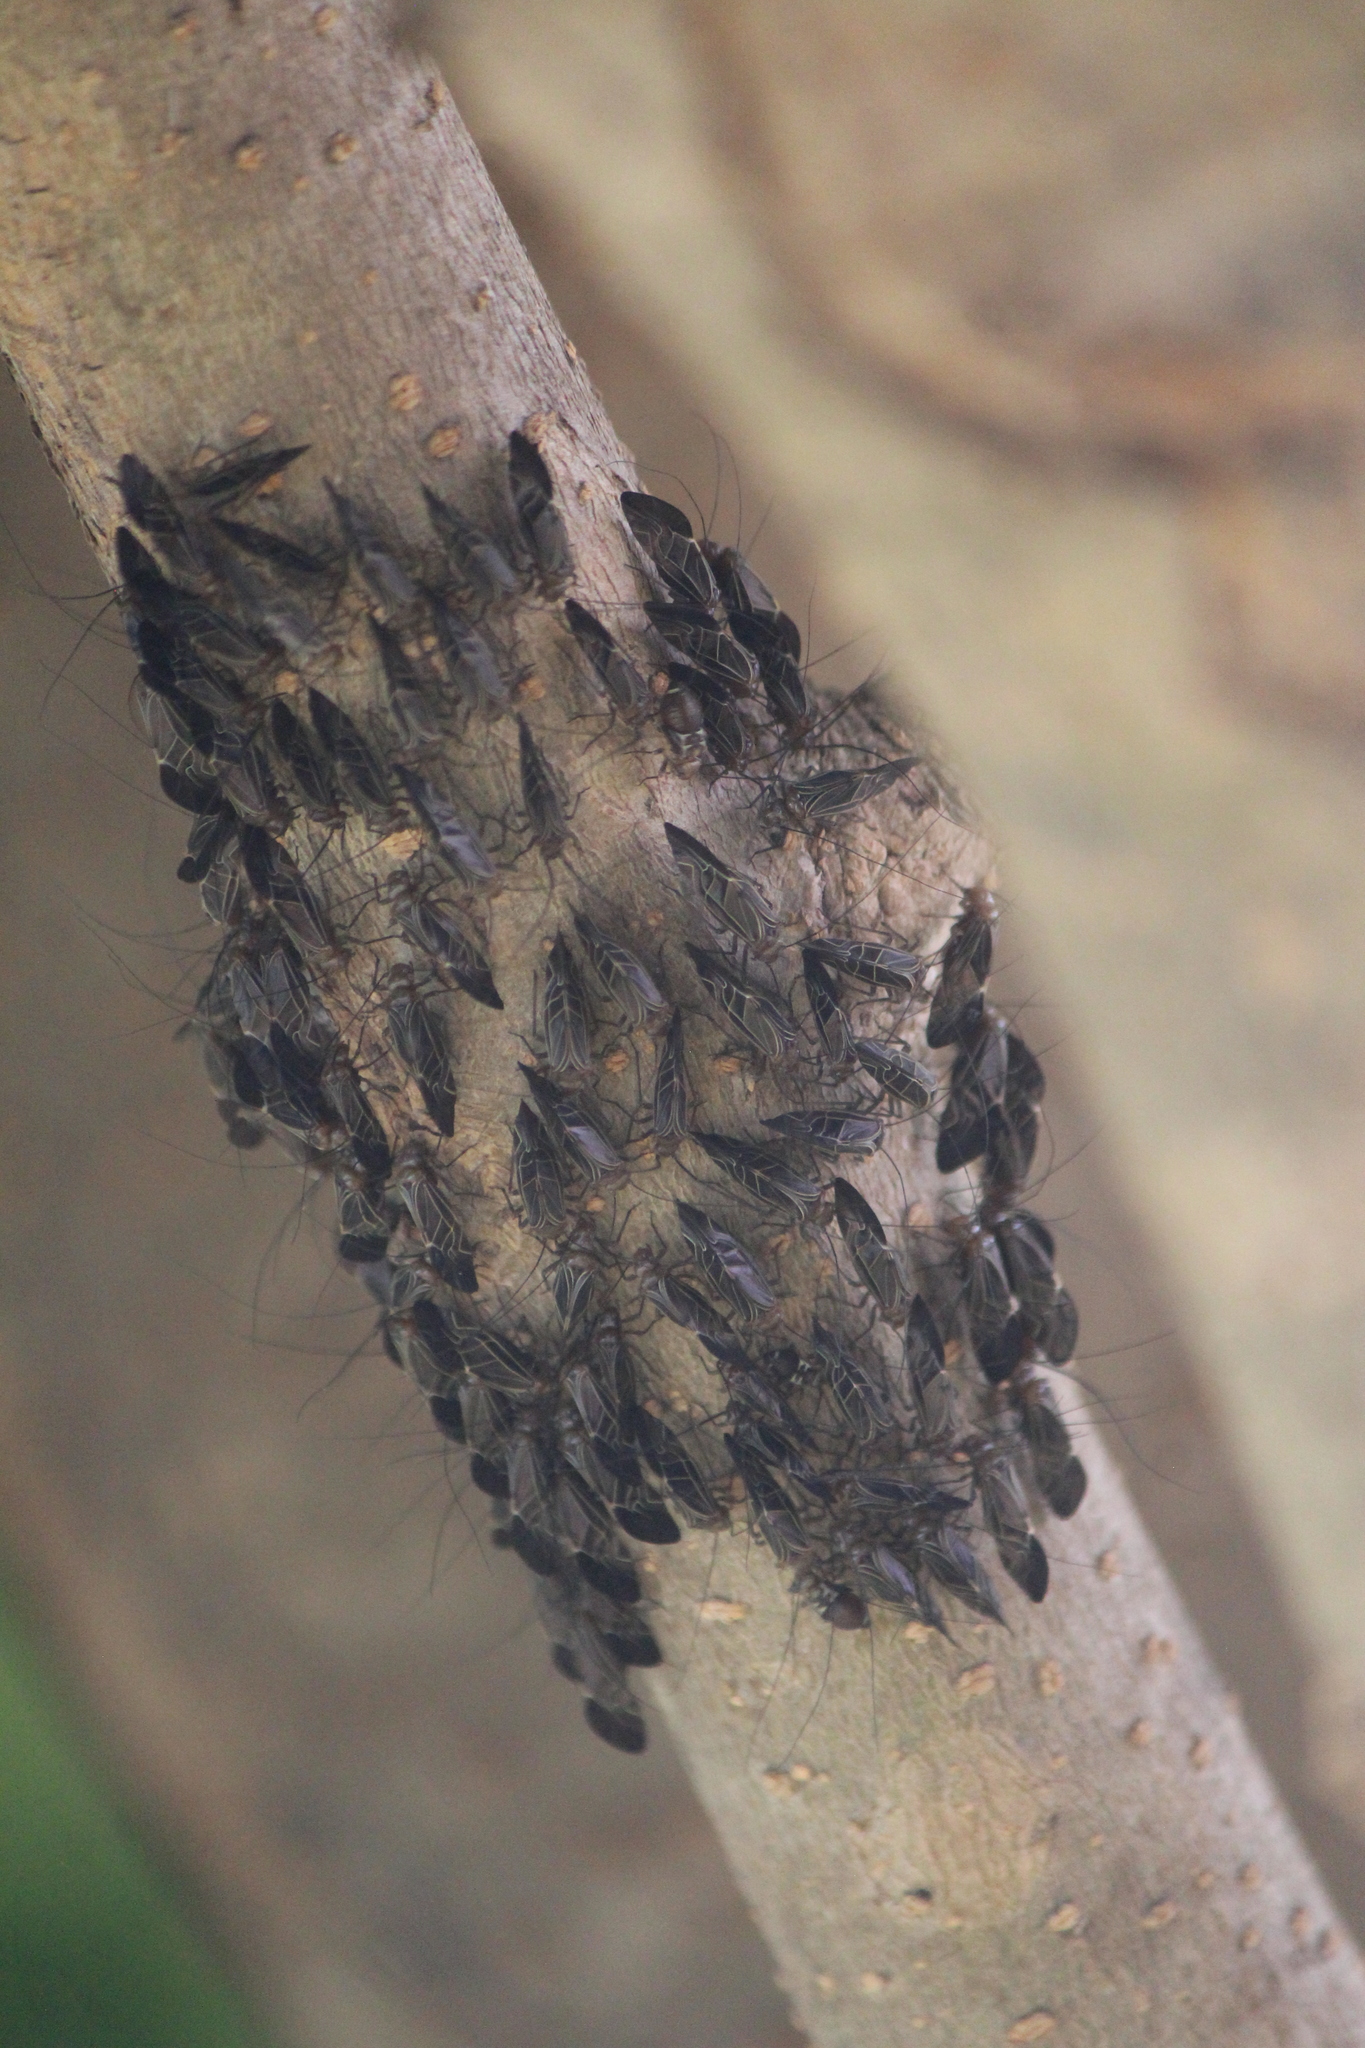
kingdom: Animalia
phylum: Arthropoda
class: Insecta
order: Psocodea
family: Psocidae
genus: Cerastipsocus
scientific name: Cerastipsocus venosus
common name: Tree cattle
